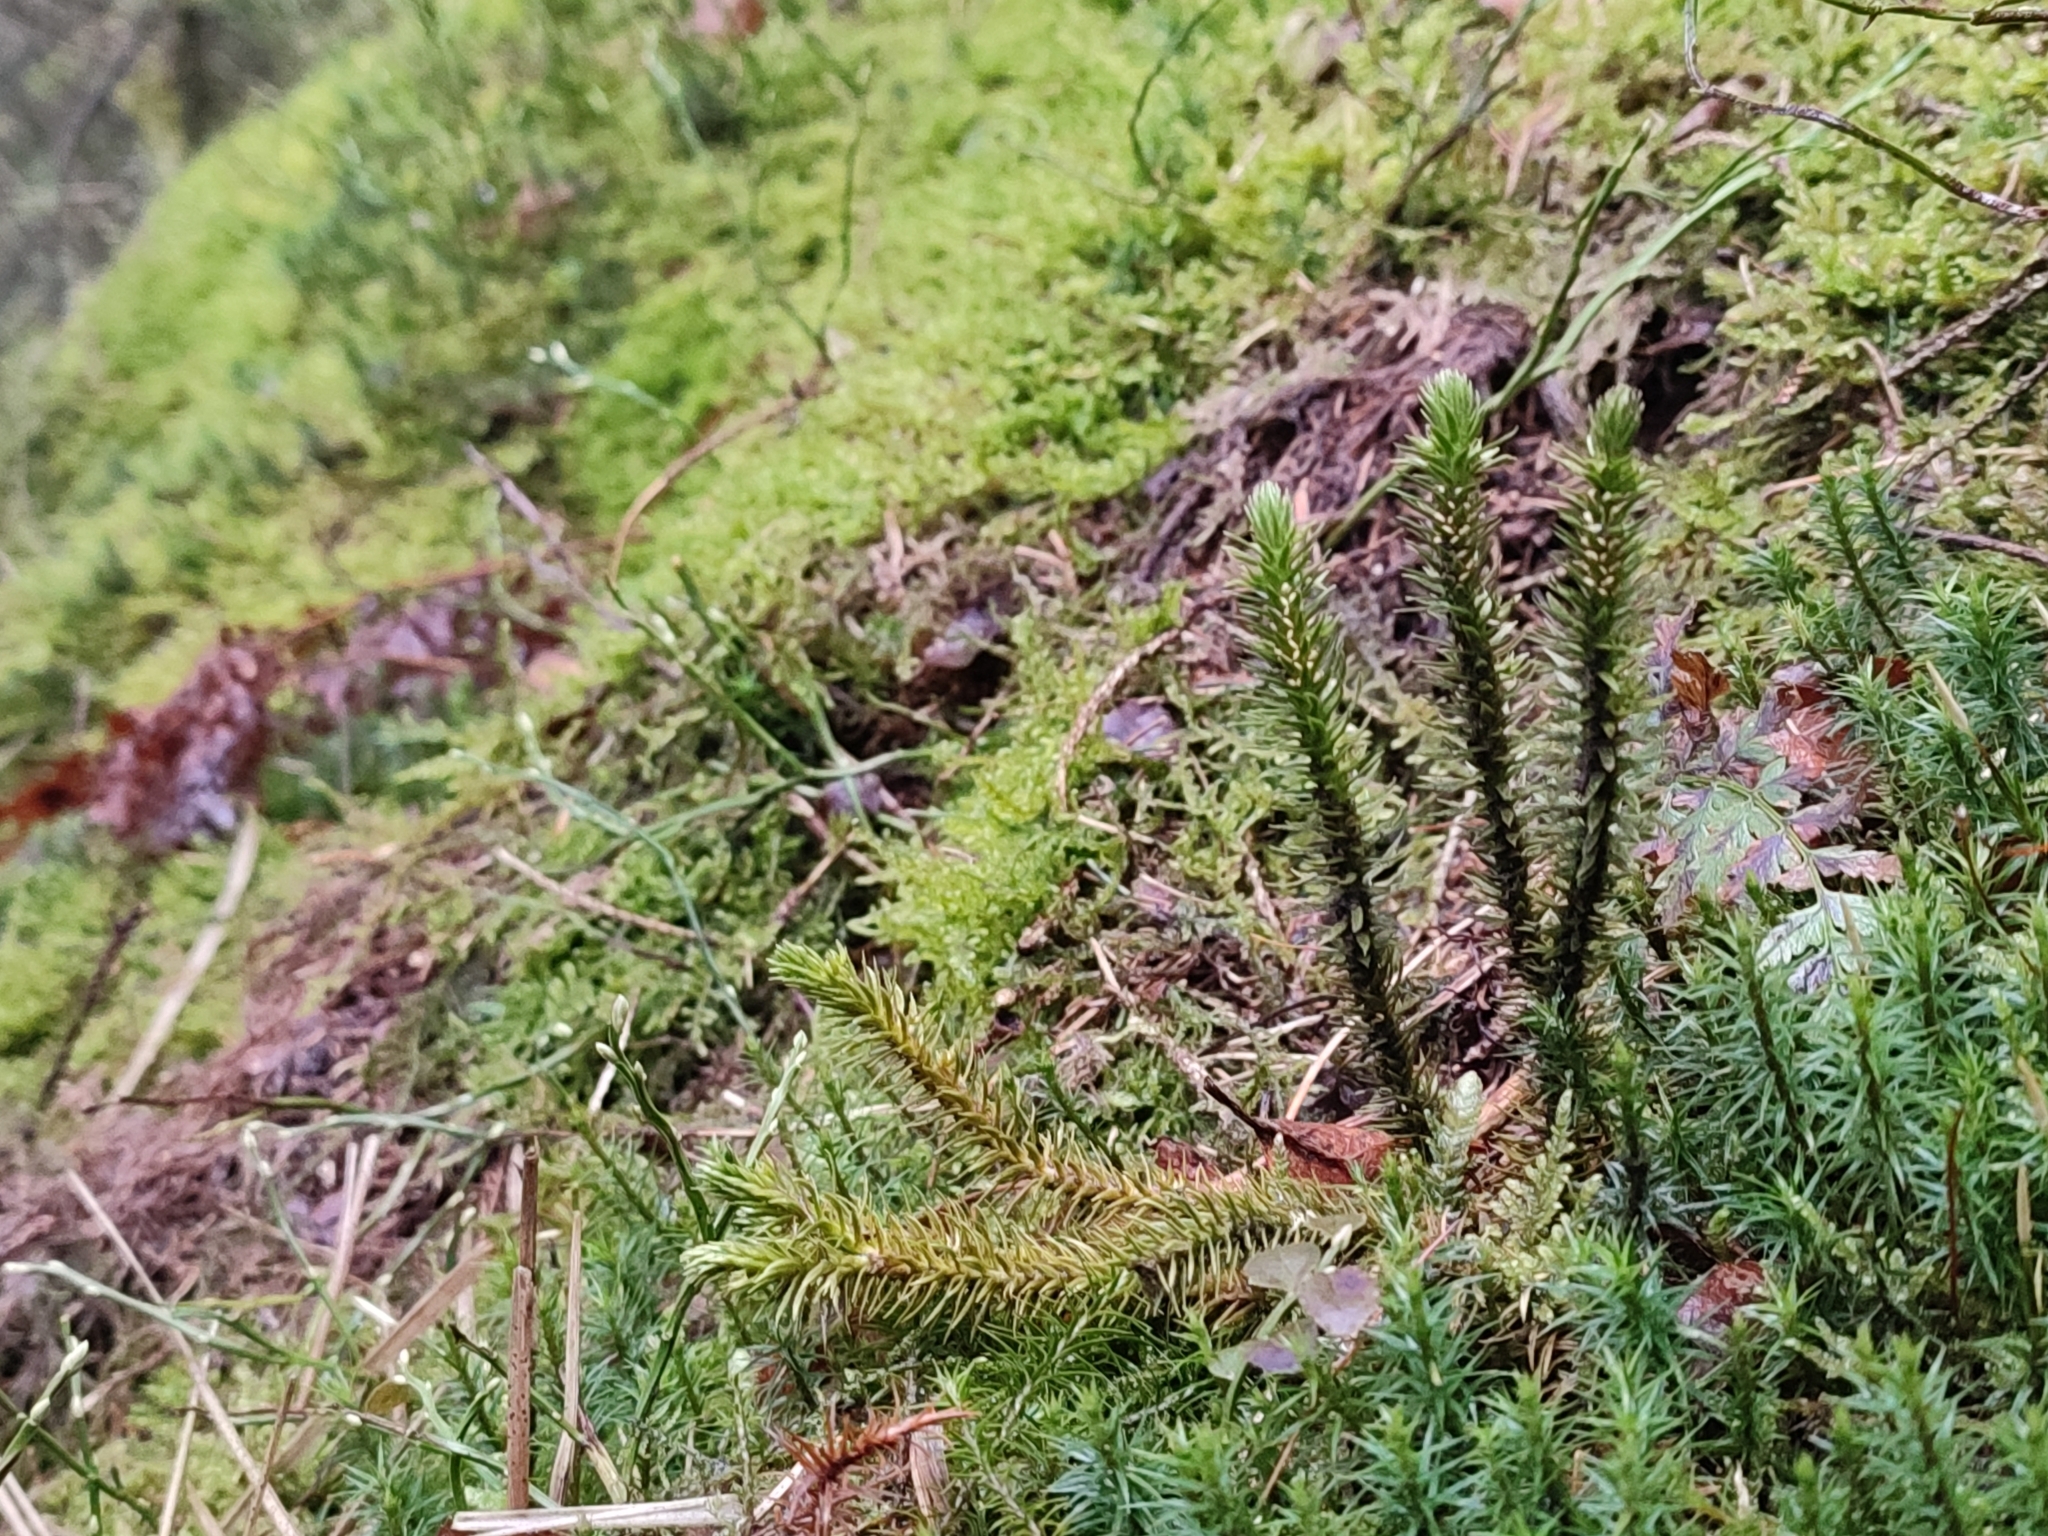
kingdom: Plantae
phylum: Tracheophyta
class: Lycopodiopsida
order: Lycopodiales
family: Lycopodiaceae
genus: Huperzia
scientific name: Huperzia selago
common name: Northern firmoss
